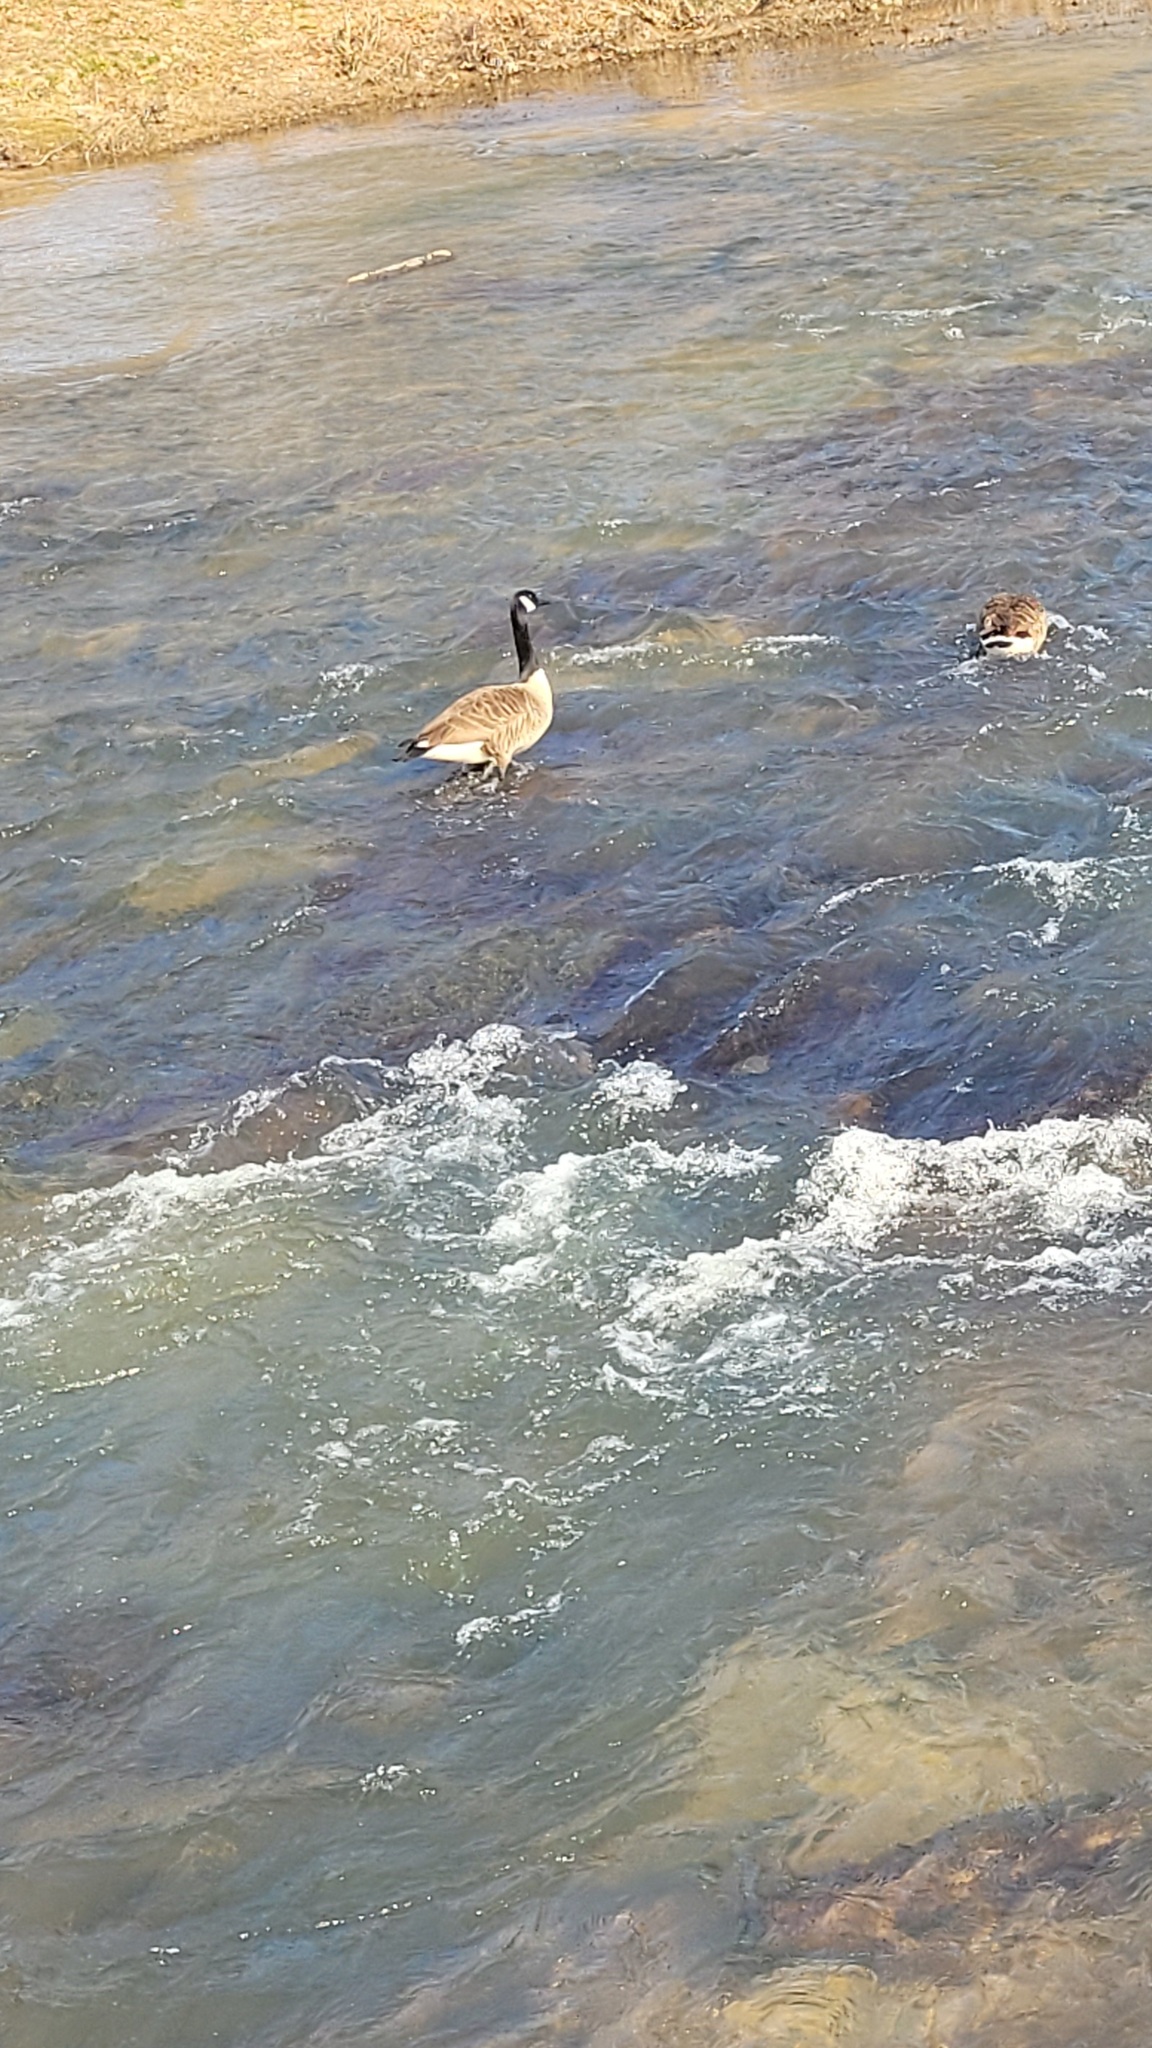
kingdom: Animalia
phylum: Chordata
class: Aves
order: Anseriformes
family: Anatidae
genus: Branta
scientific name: Branta canadensis
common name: Canada goose
